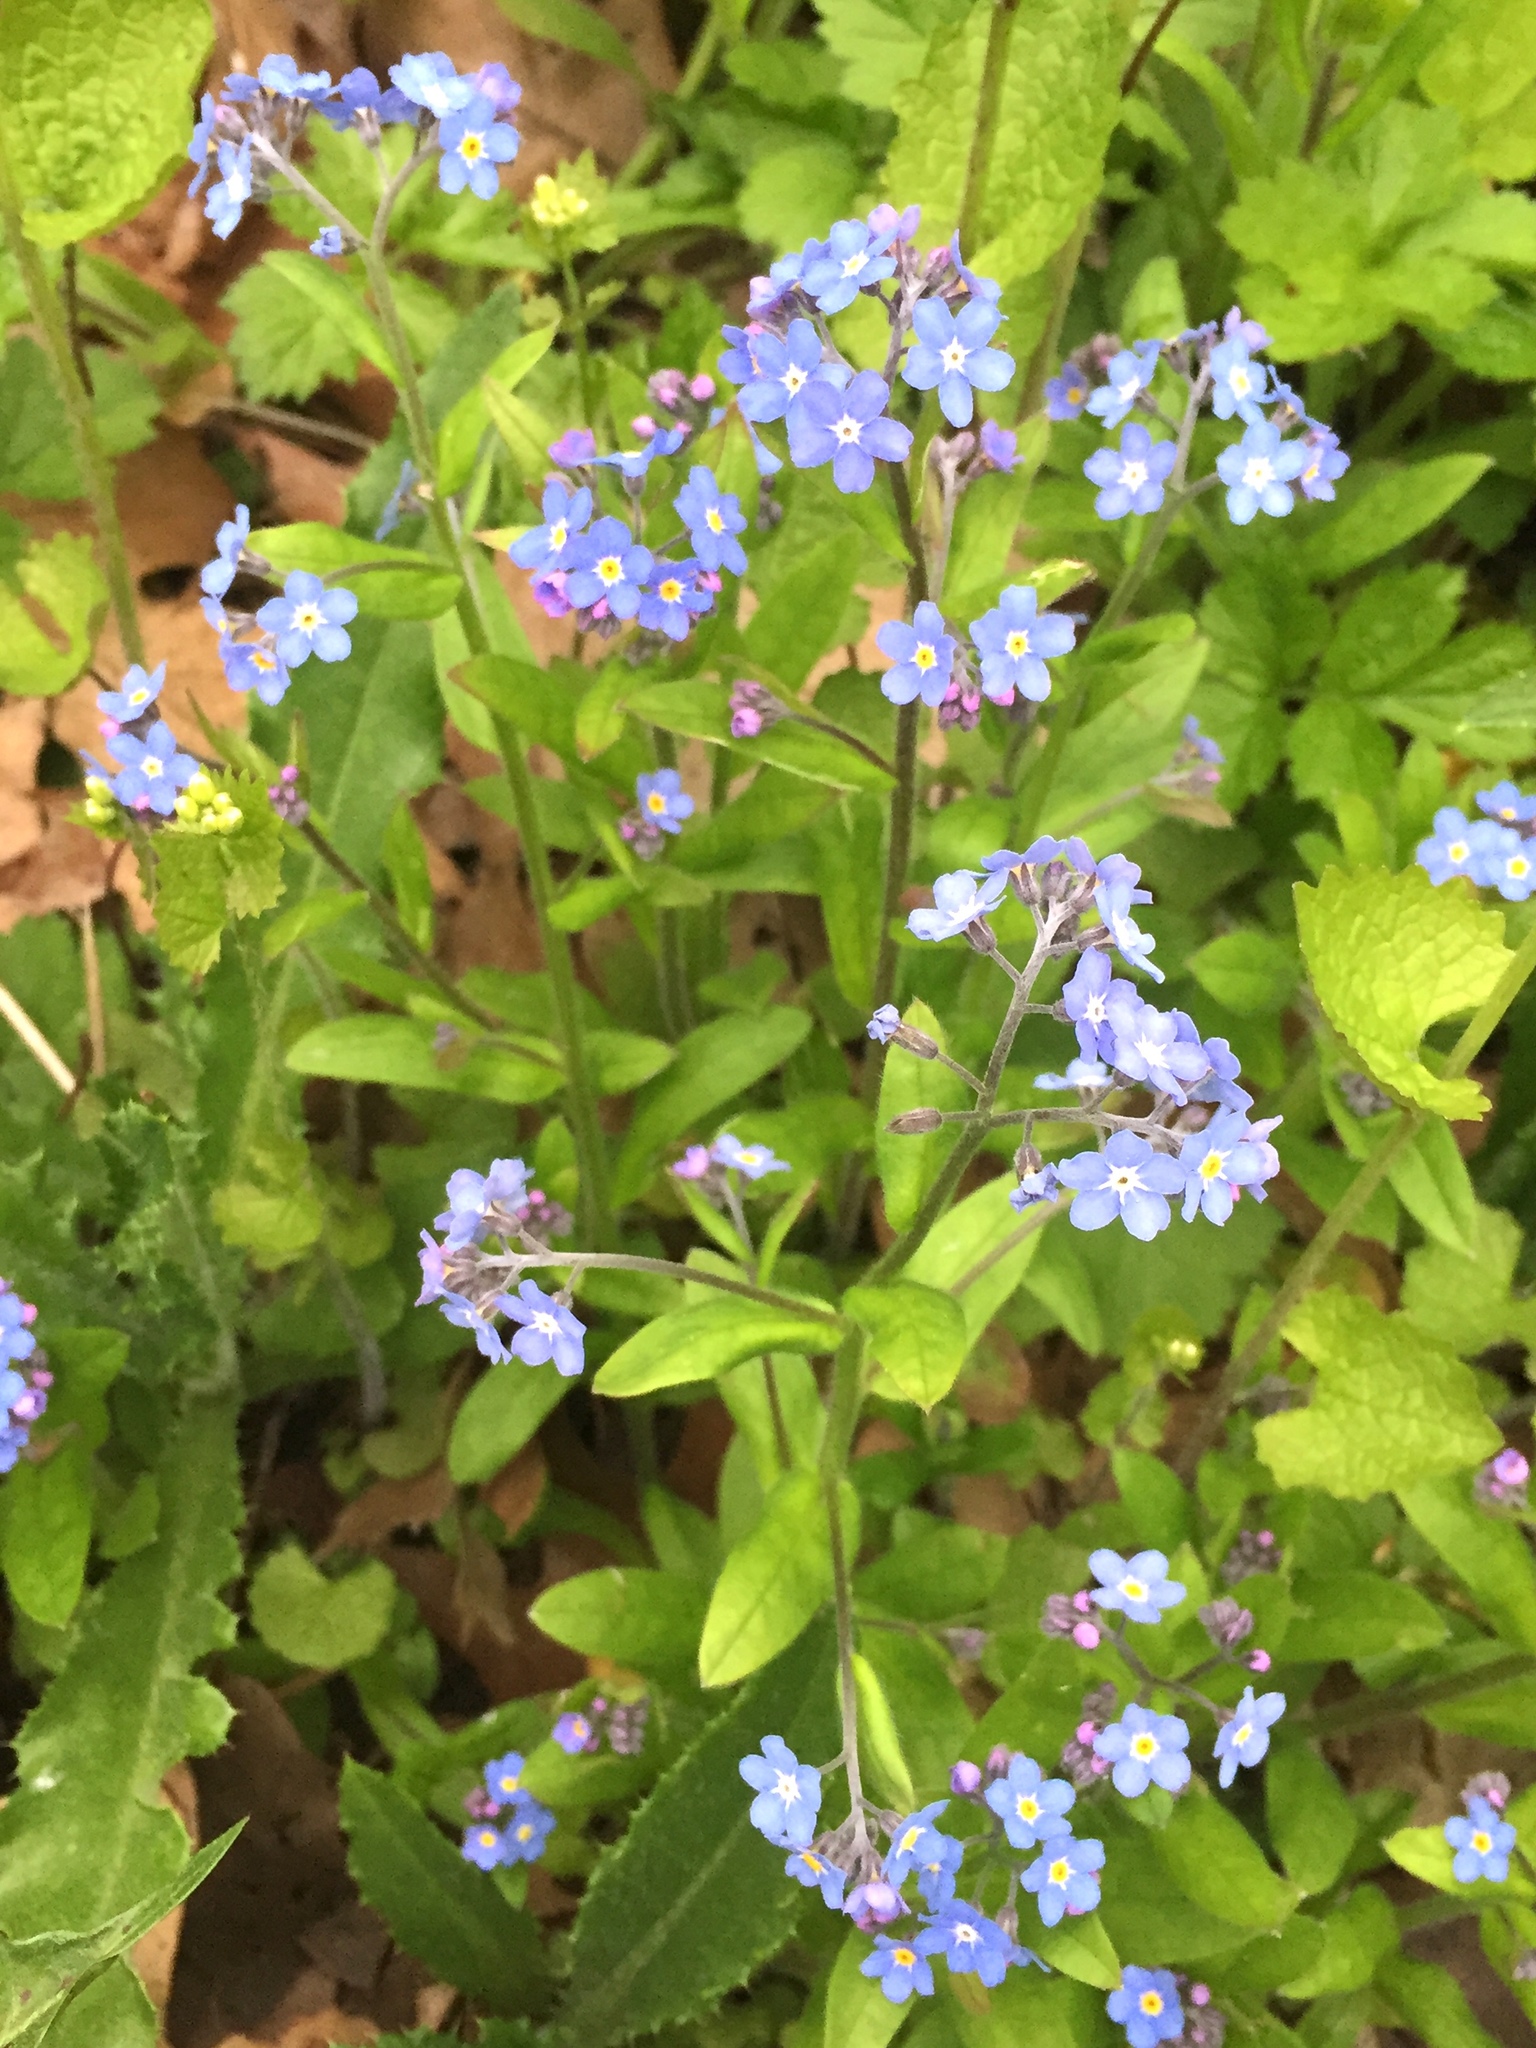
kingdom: Plantae
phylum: Tracheophyta
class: Magnoliopsida
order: Boraginales
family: Boraginaceae
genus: Myosotis
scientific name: Myosotis sylvatica
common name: Wood forget-me-not
